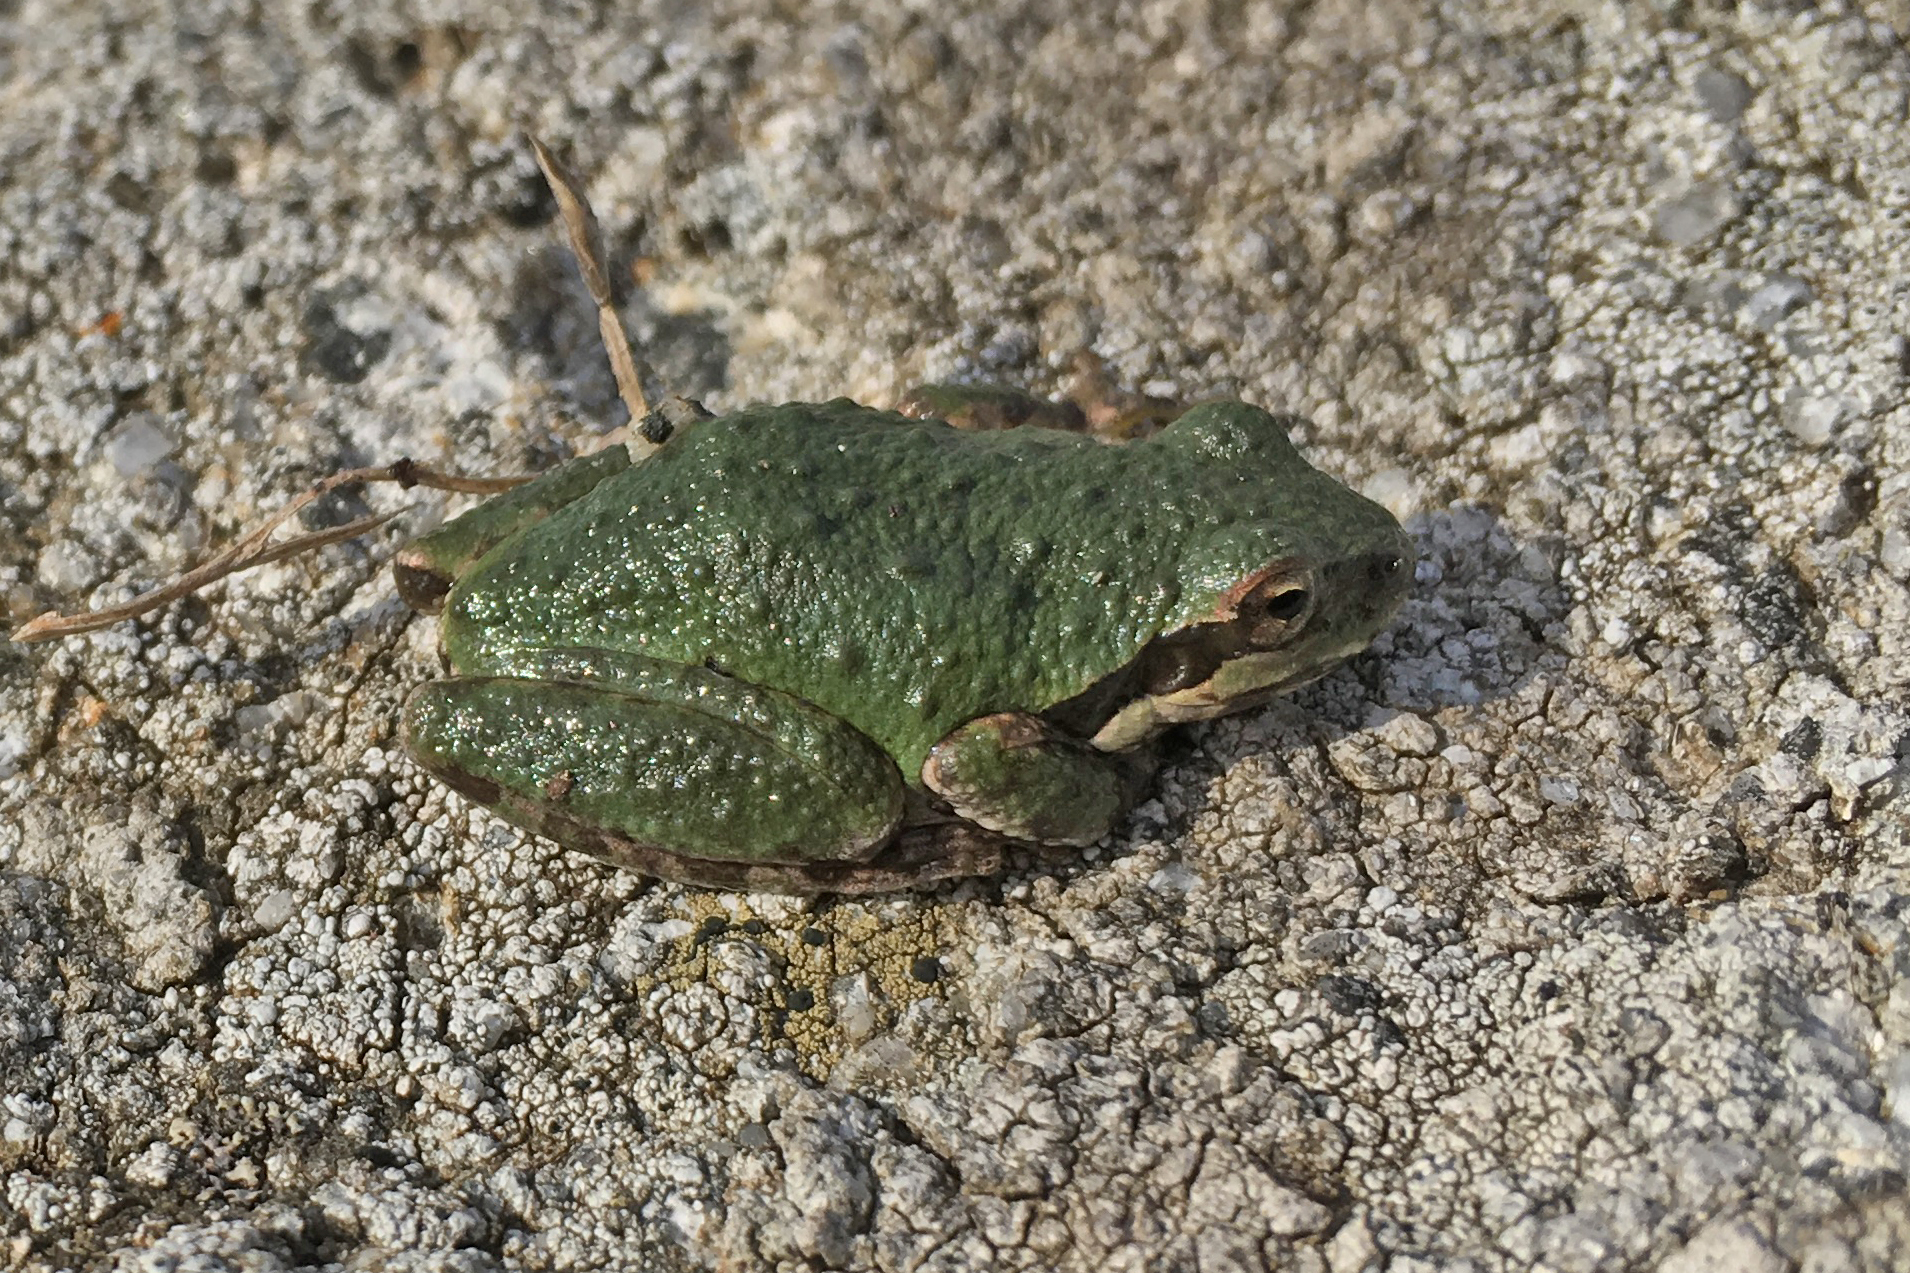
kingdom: Animalia
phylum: Chordata
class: Amphibia
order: Anura
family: Hylidae
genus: Pseudacris
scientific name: Pseudacris regilla
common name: Pacific chorus frog
